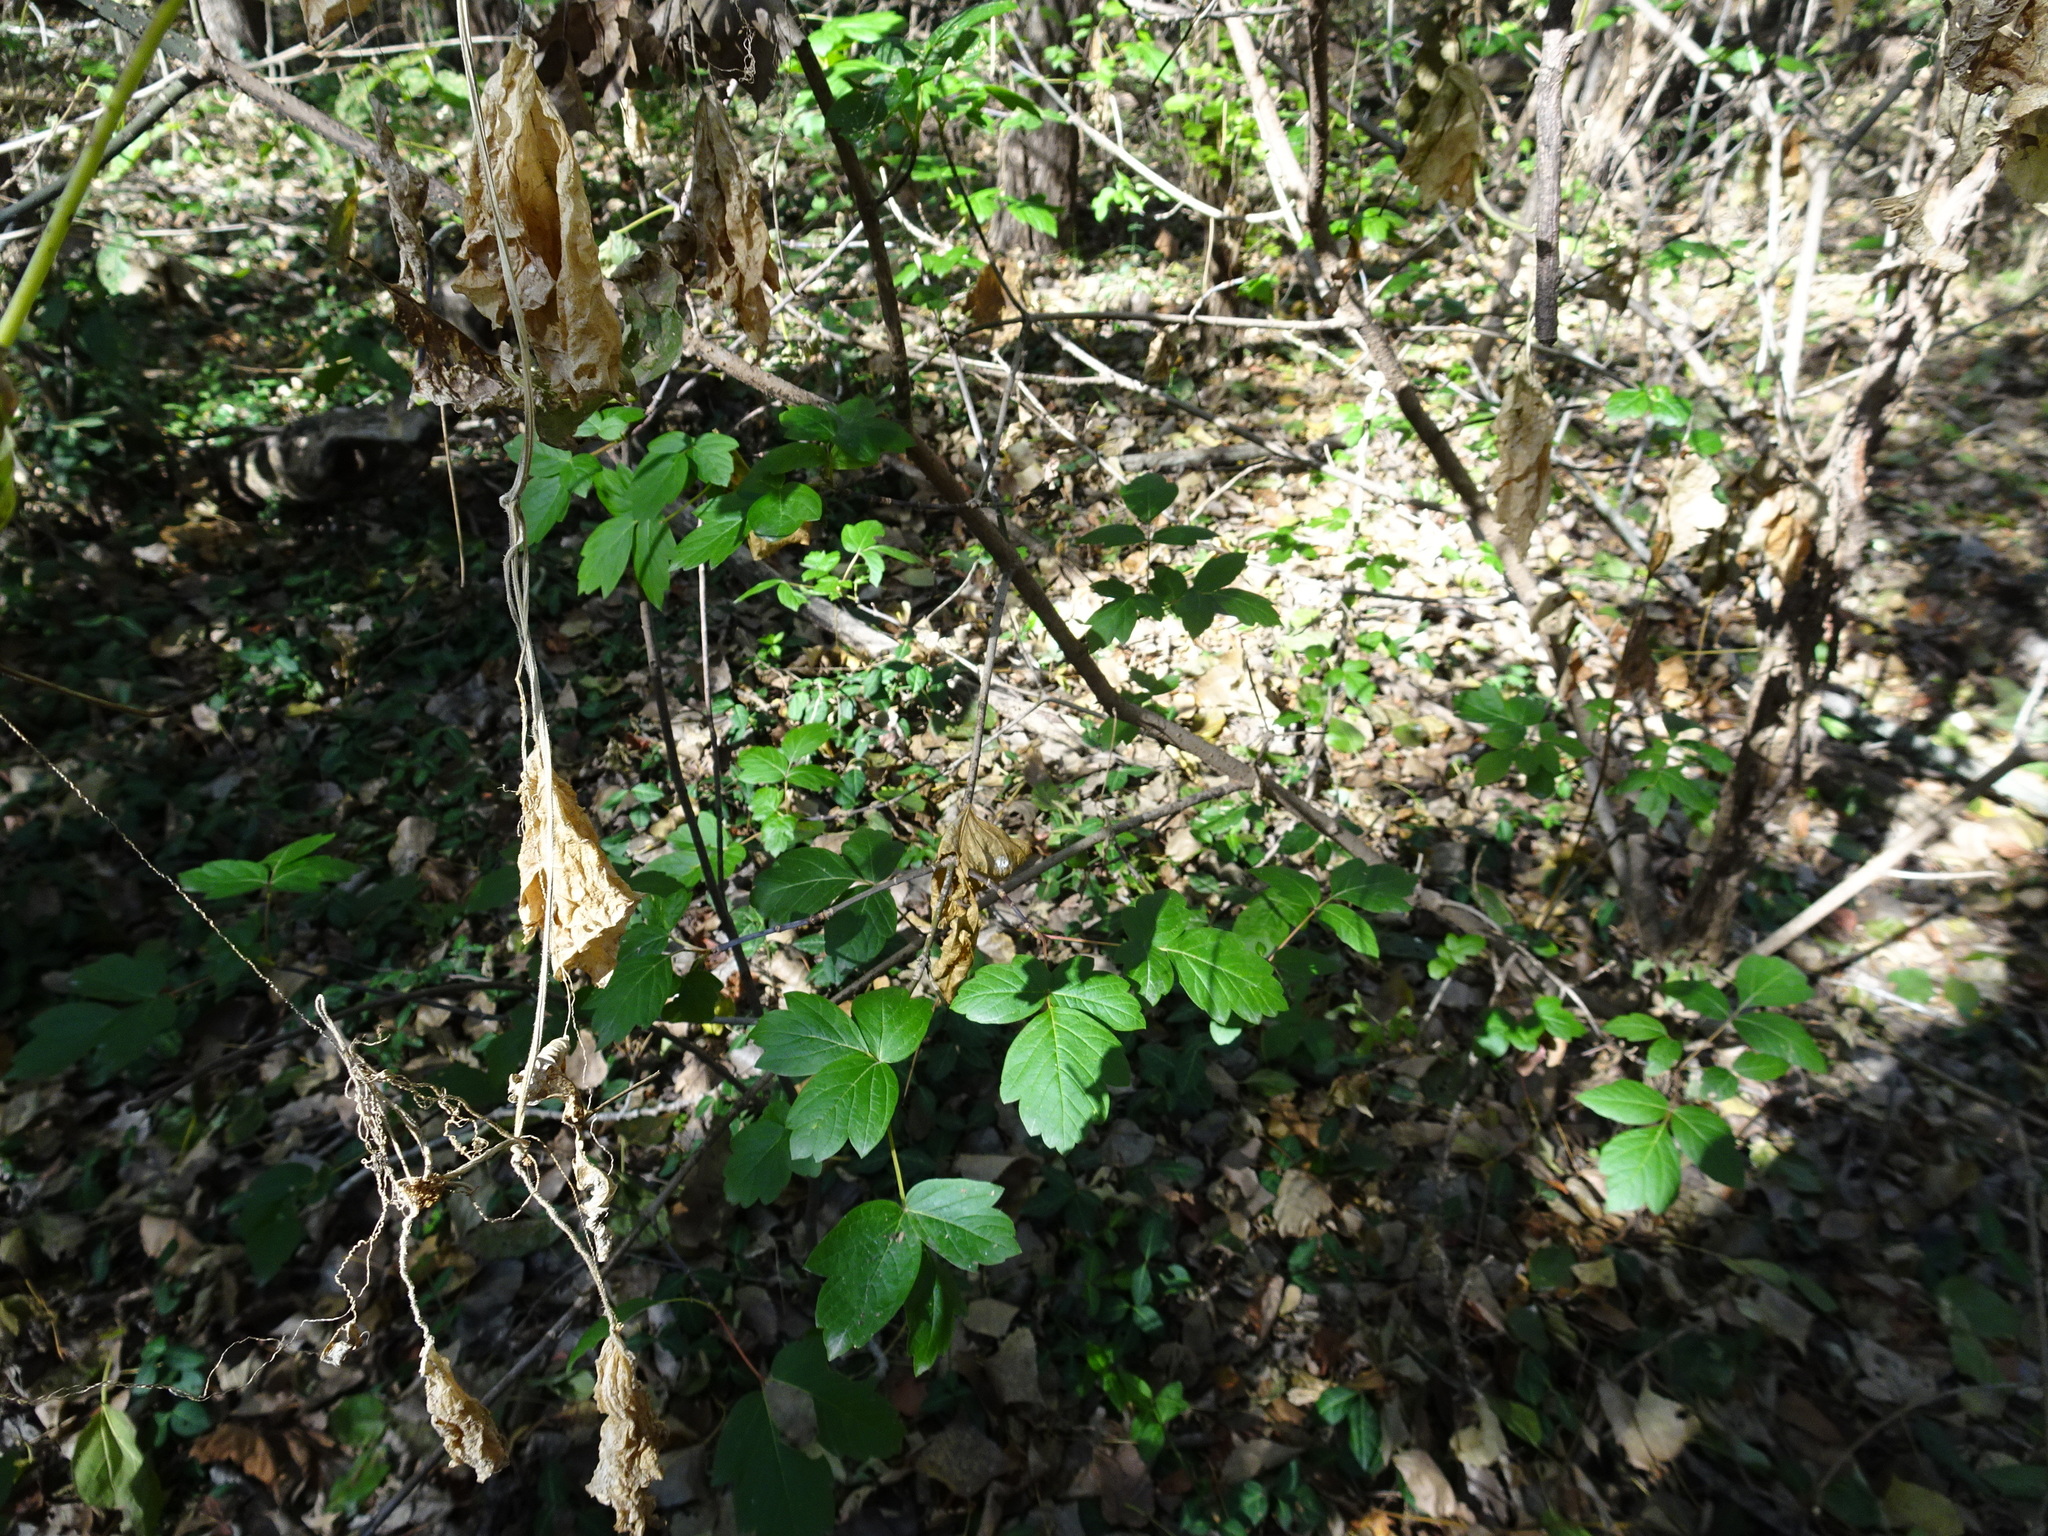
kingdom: Plantae
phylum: Tracheophyta
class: Magnoliopsida
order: Sapindales
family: Sapindaceae
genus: Acer
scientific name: Acer negundo
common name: Ashleaf maple
